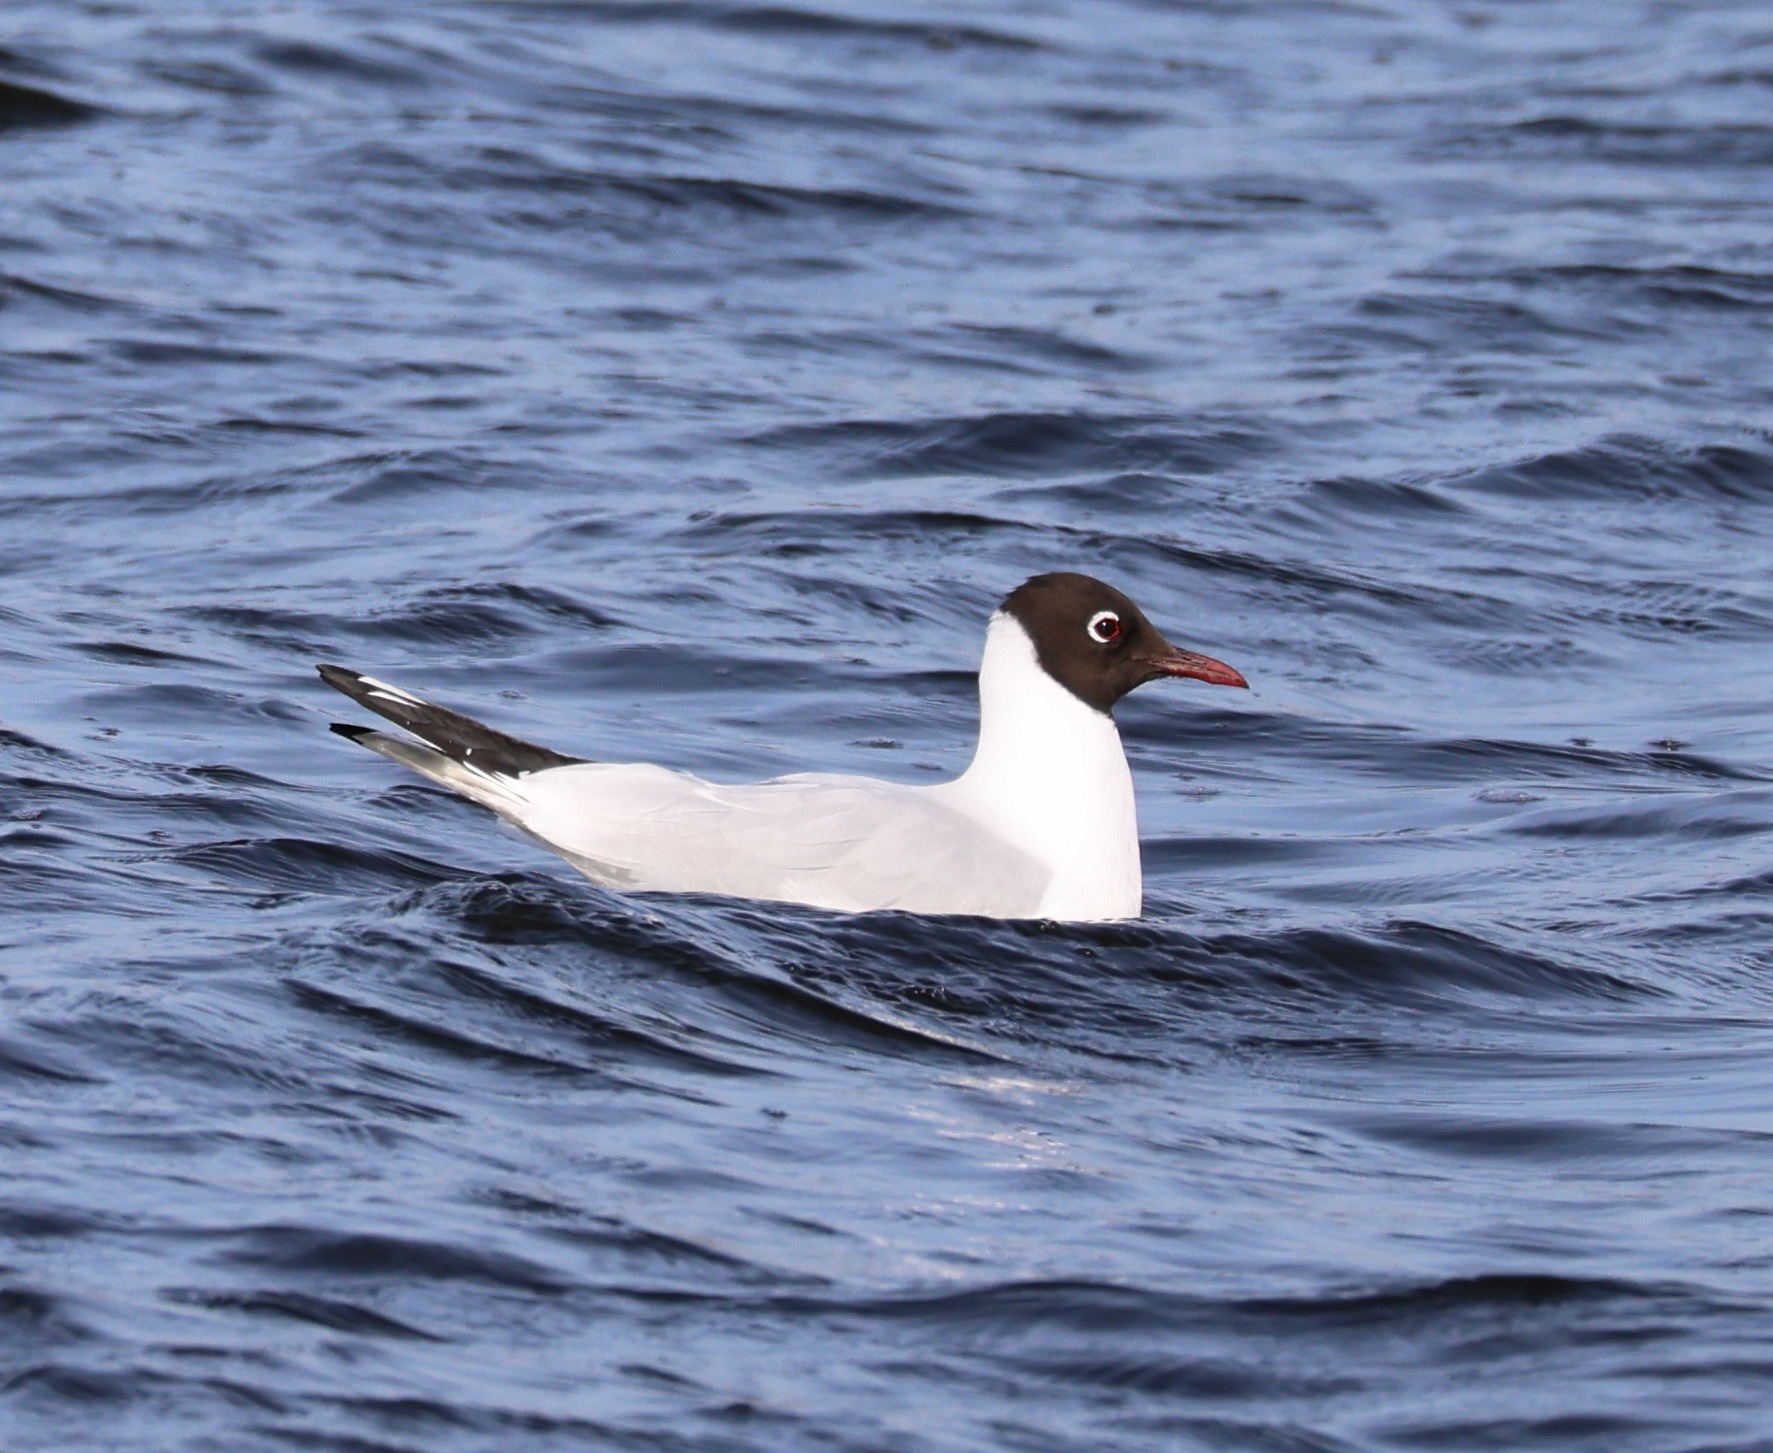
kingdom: Animalia
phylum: Chordata
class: Aves
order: Charadriiformes
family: Laridae
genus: Chroicocephalus
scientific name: Chroicocephalus ridibundus
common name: Black-headed gull
